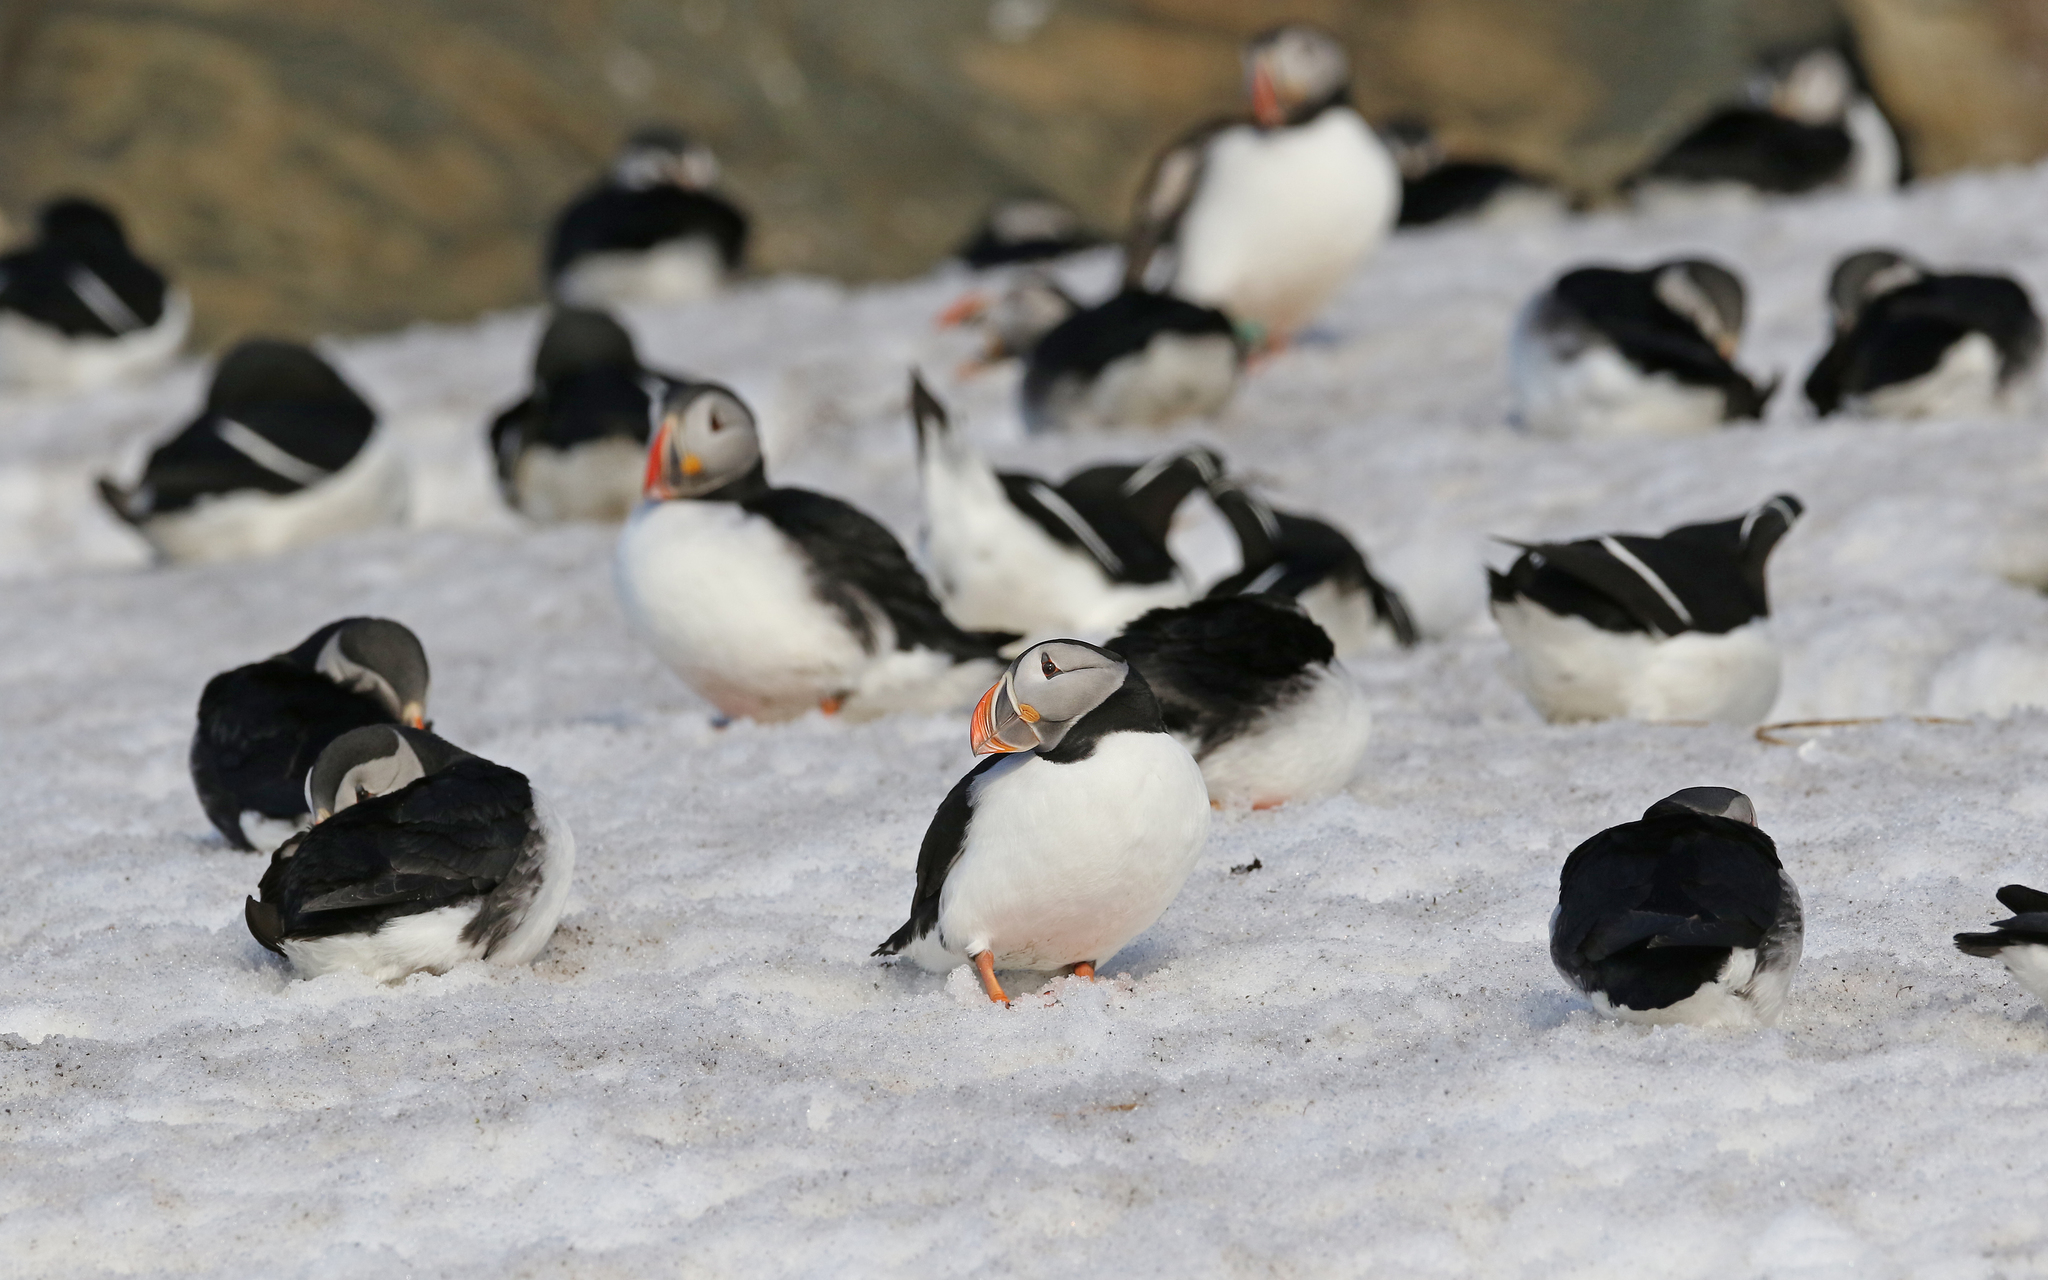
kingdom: Animalia
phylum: Chordata
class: Aves
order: Charadriiformes
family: Alcidae
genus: Fratercula
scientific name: Fratercula arctica
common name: Atlantic puffin
